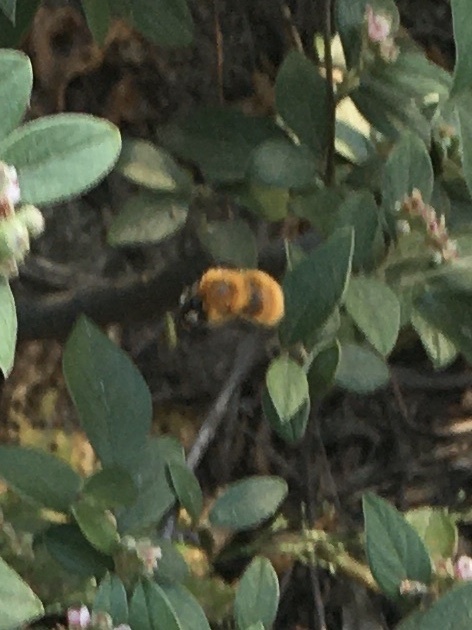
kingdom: Animalia
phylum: Arthropoda
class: Insecta
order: Hymenoptera
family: Apidae
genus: Bombus
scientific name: Bombus pascuorum
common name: Common carder bee
